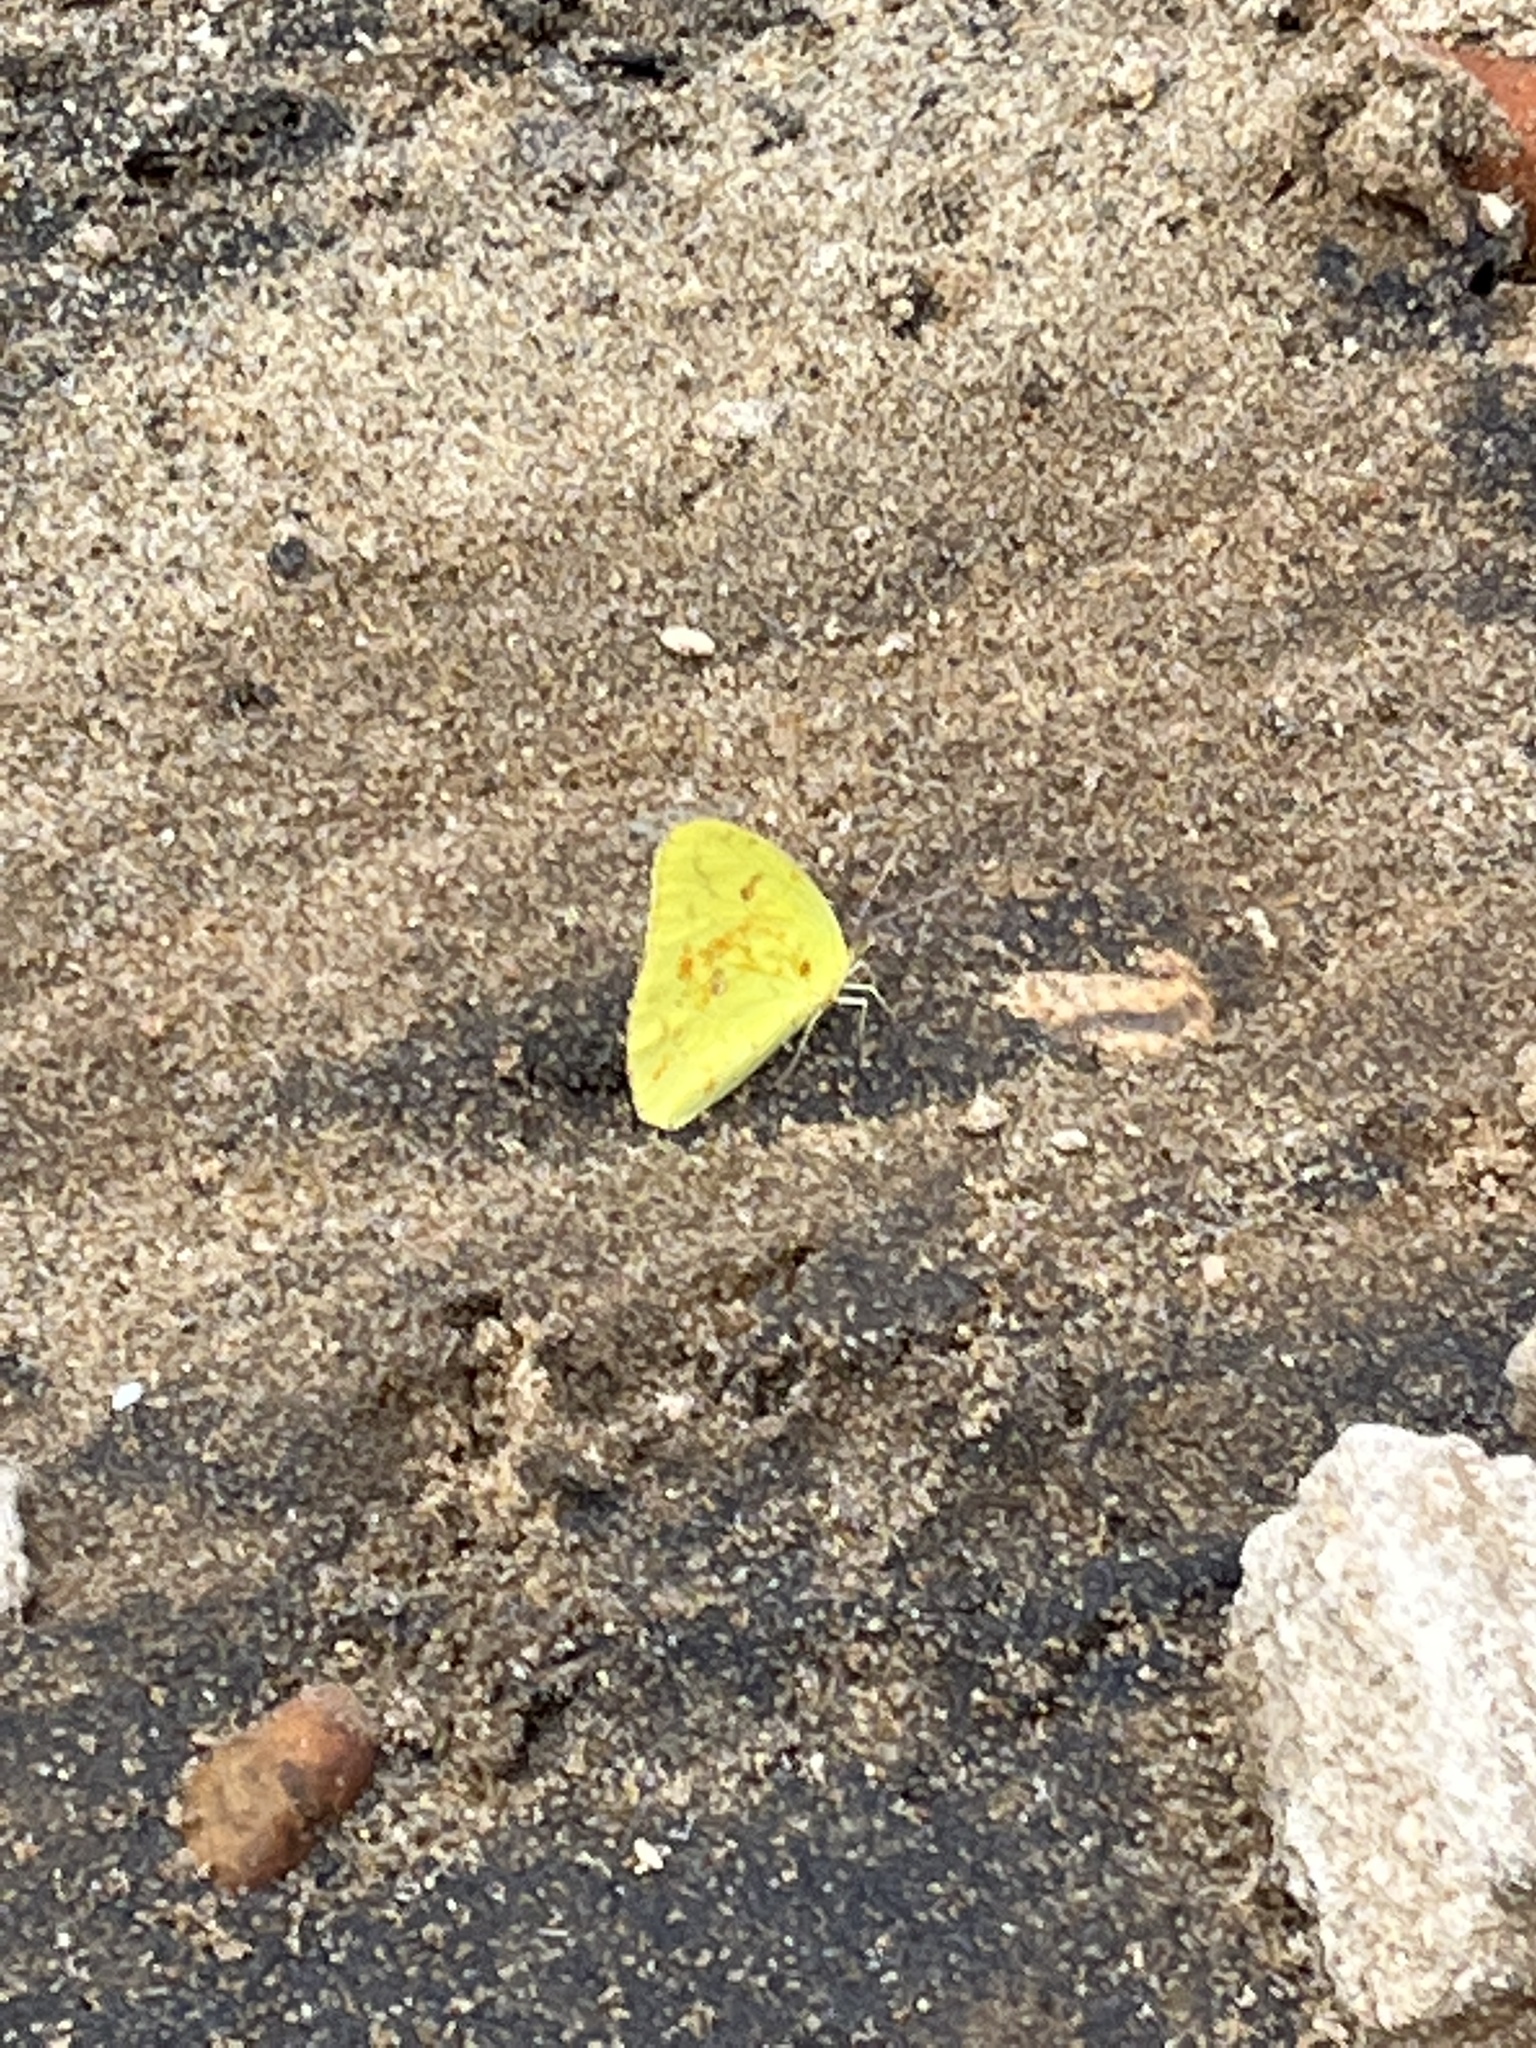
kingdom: Animalia
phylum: Arthropoda
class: Insecta
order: Lepidoptera
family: Pieridae
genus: Phoebis
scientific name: Phoebis marcellina
